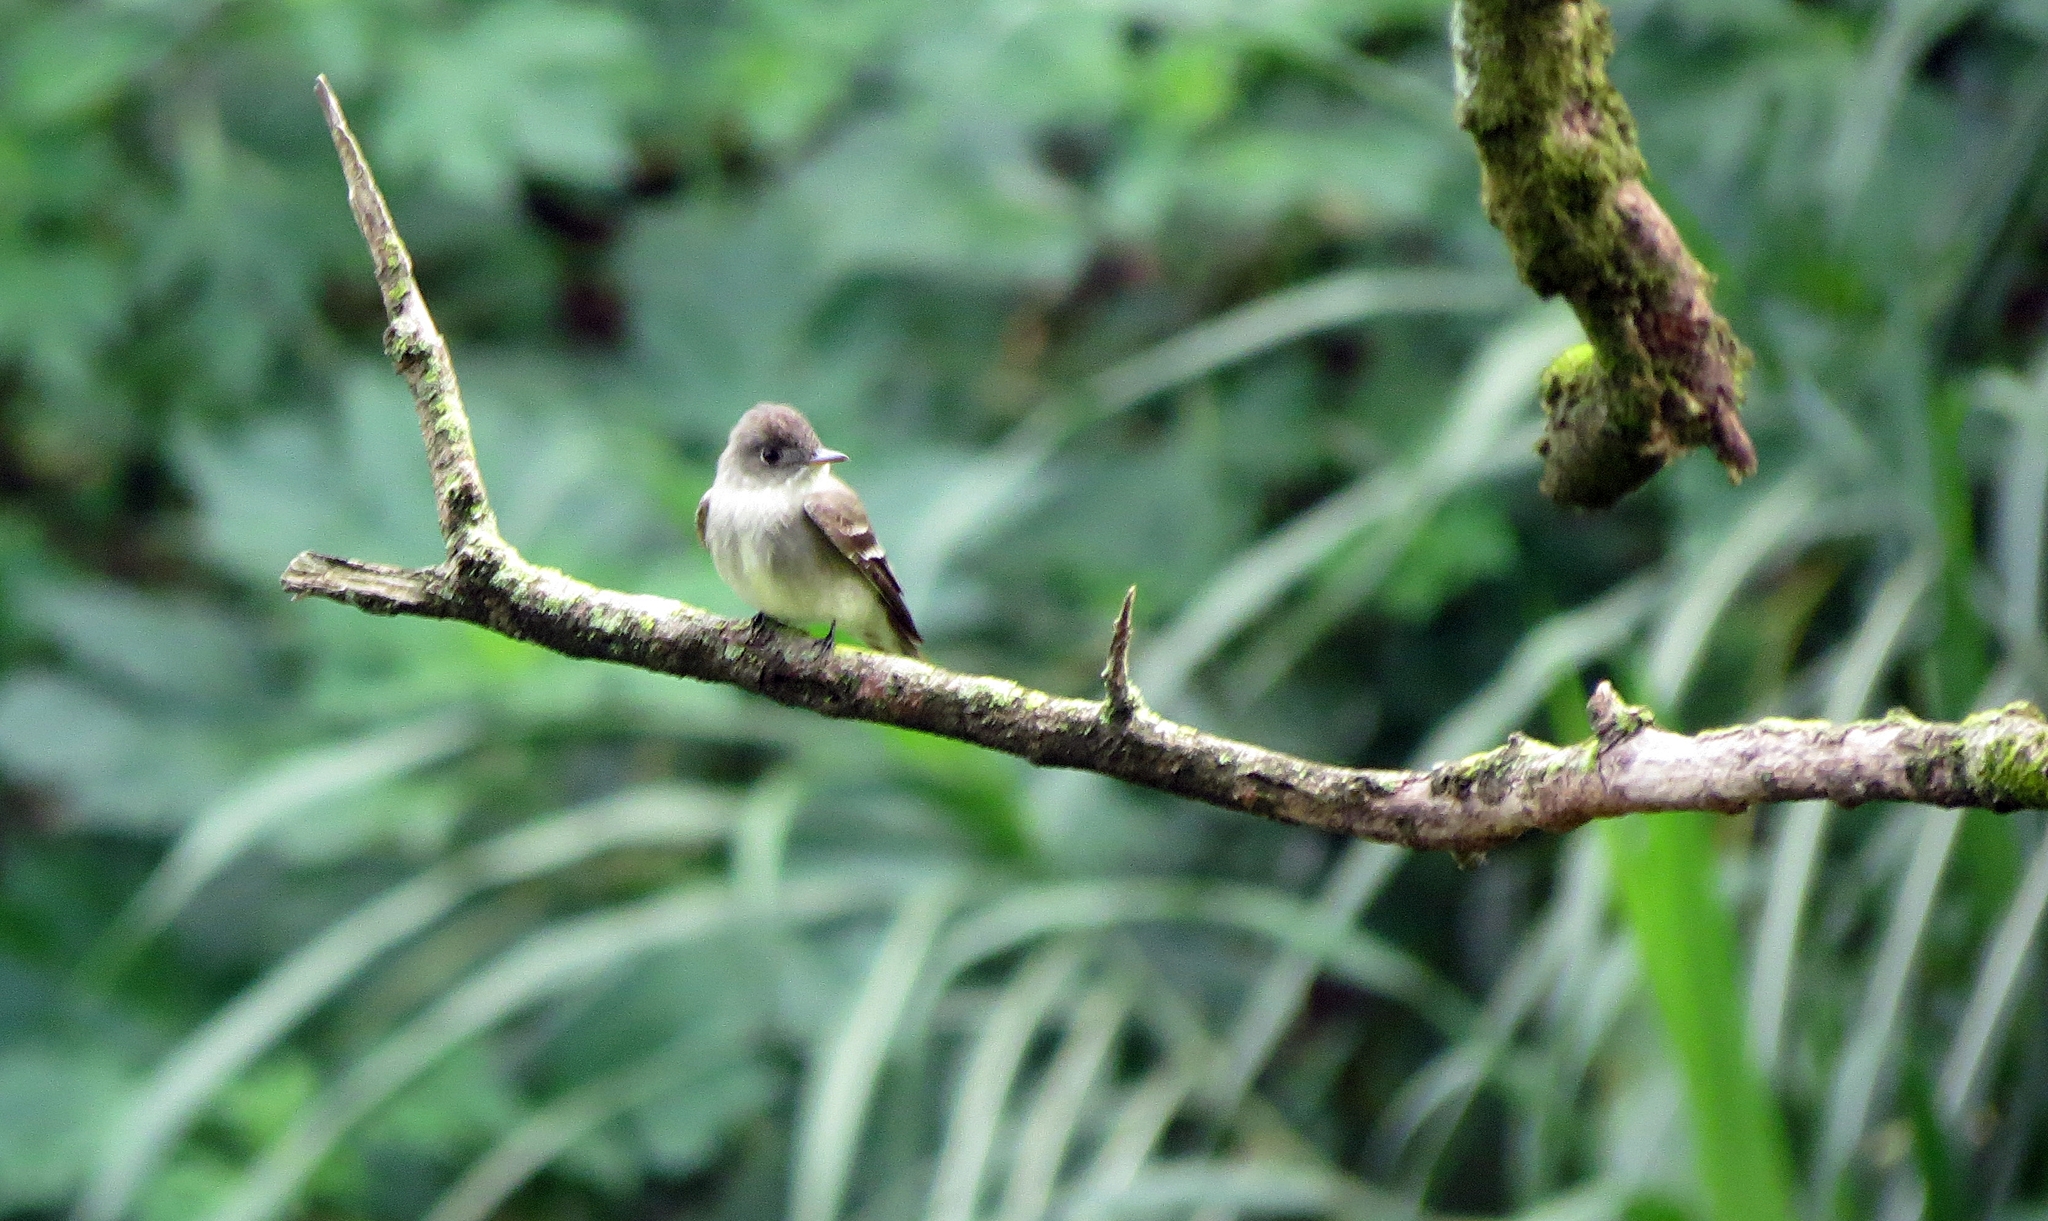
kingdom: Animalia
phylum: Chordata
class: Aves
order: Passeriformes
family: Tyrannidae
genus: Contopus
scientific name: Contopus virens
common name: Eastern wood-pewee
